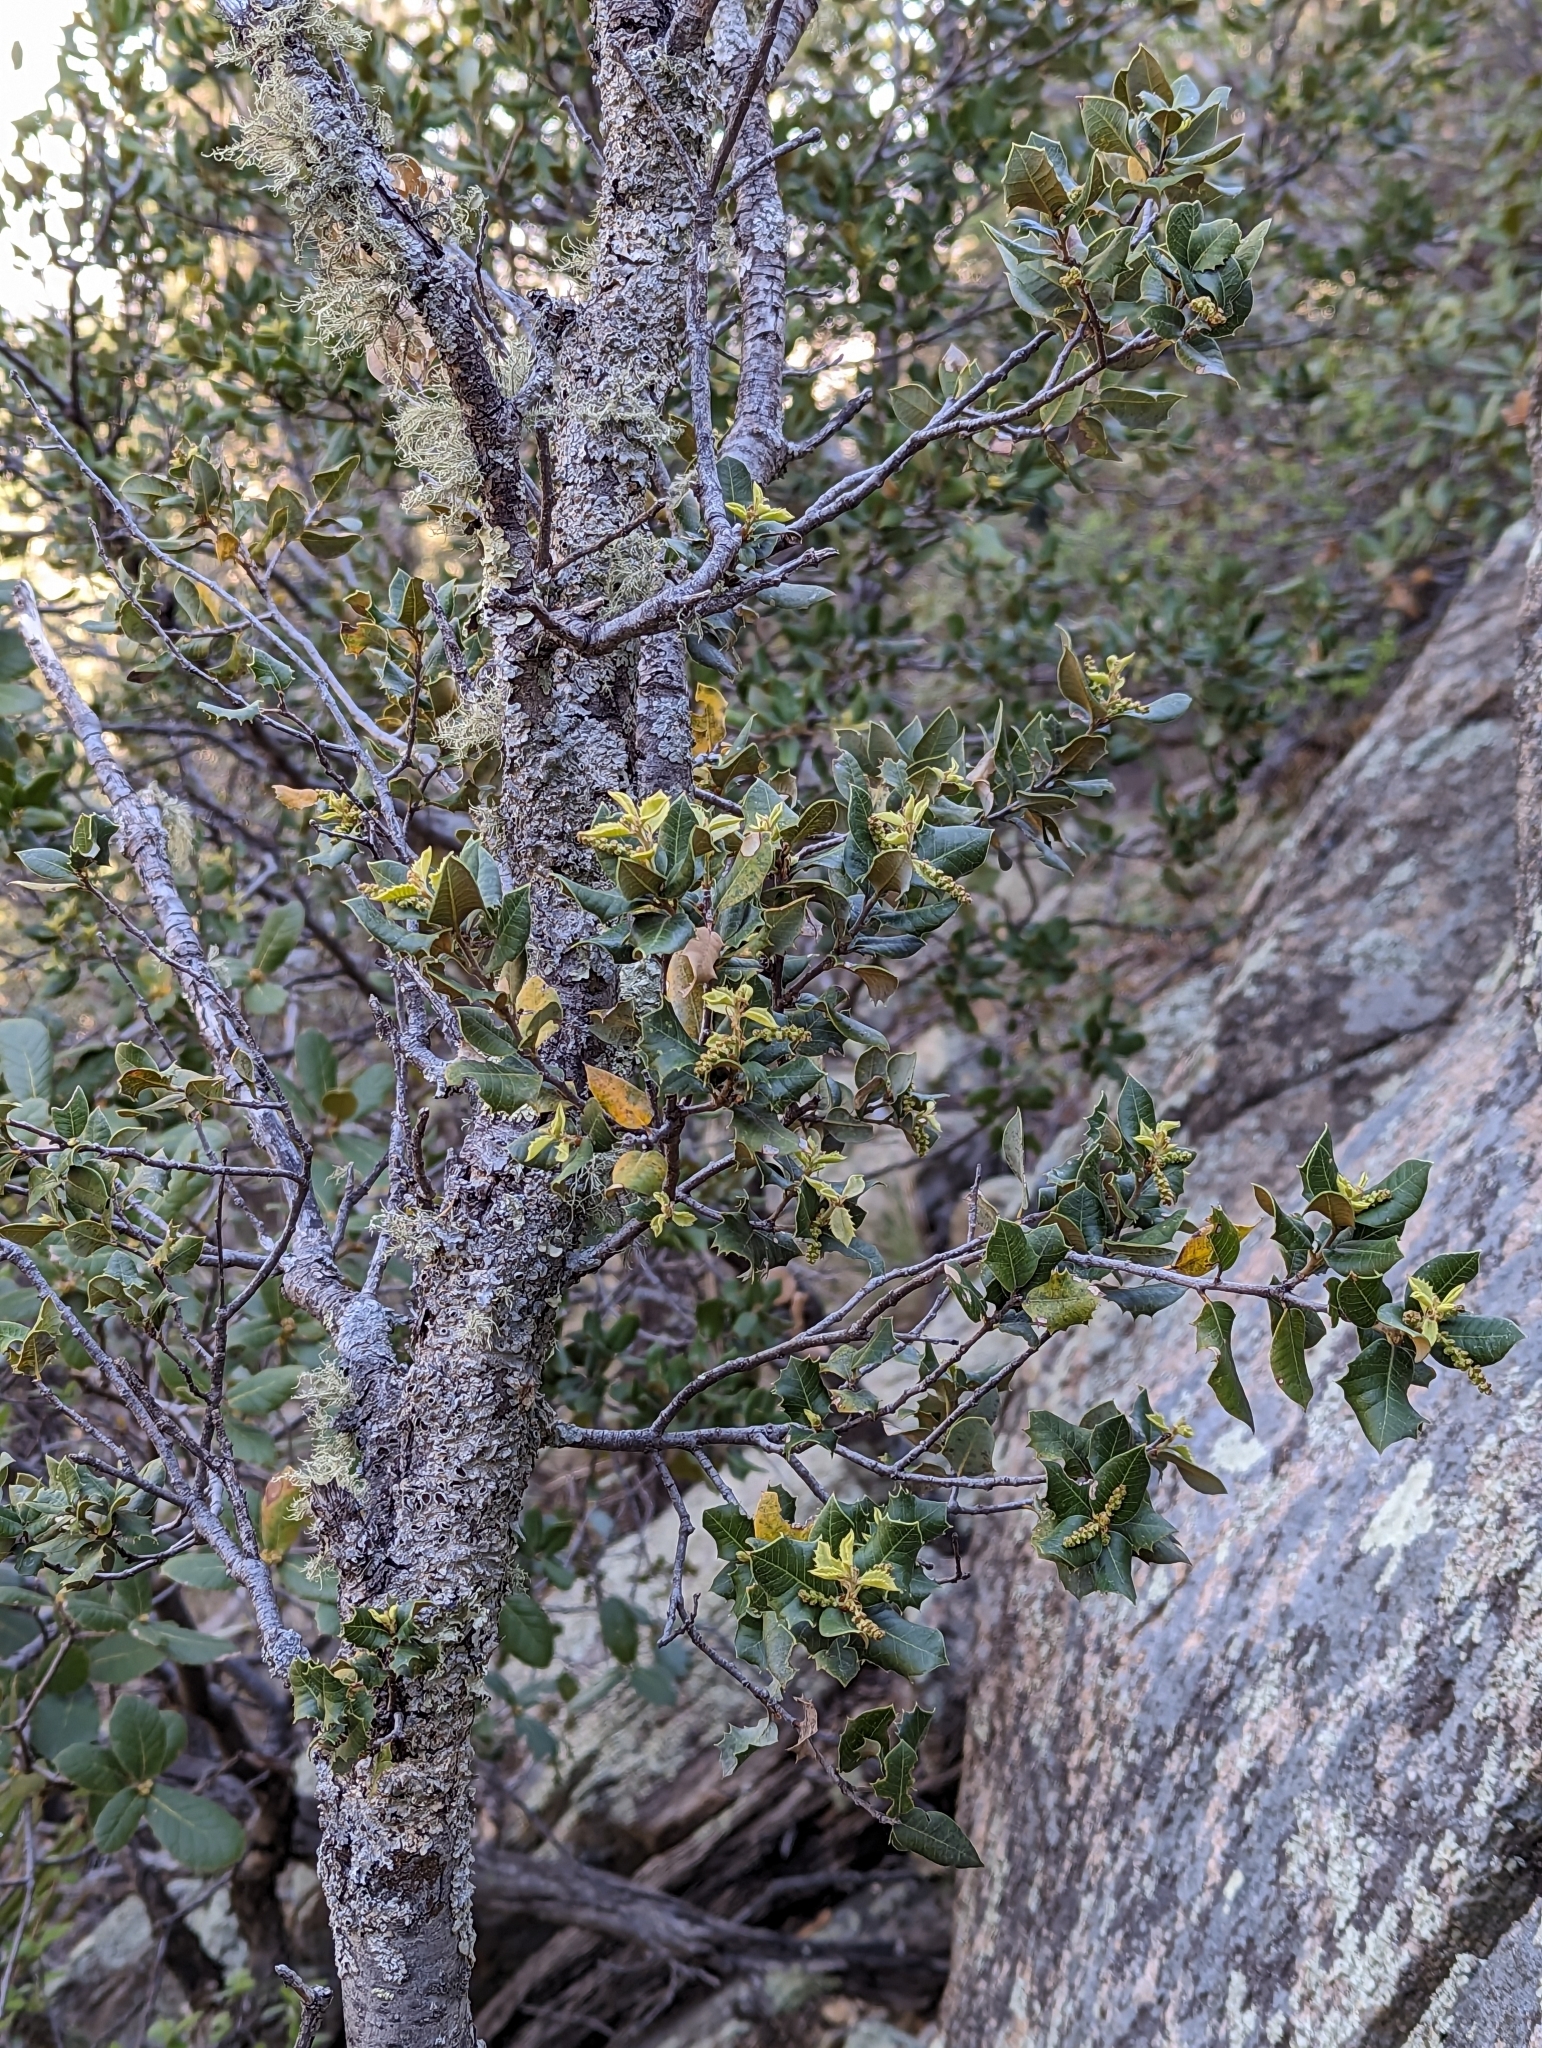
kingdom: Plantae
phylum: Tracheophyta
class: Magnoliopsida
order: Fagales
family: Fagaceae
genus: Quercus
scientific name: Quercus chrysolepis
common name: Canyon live oak
